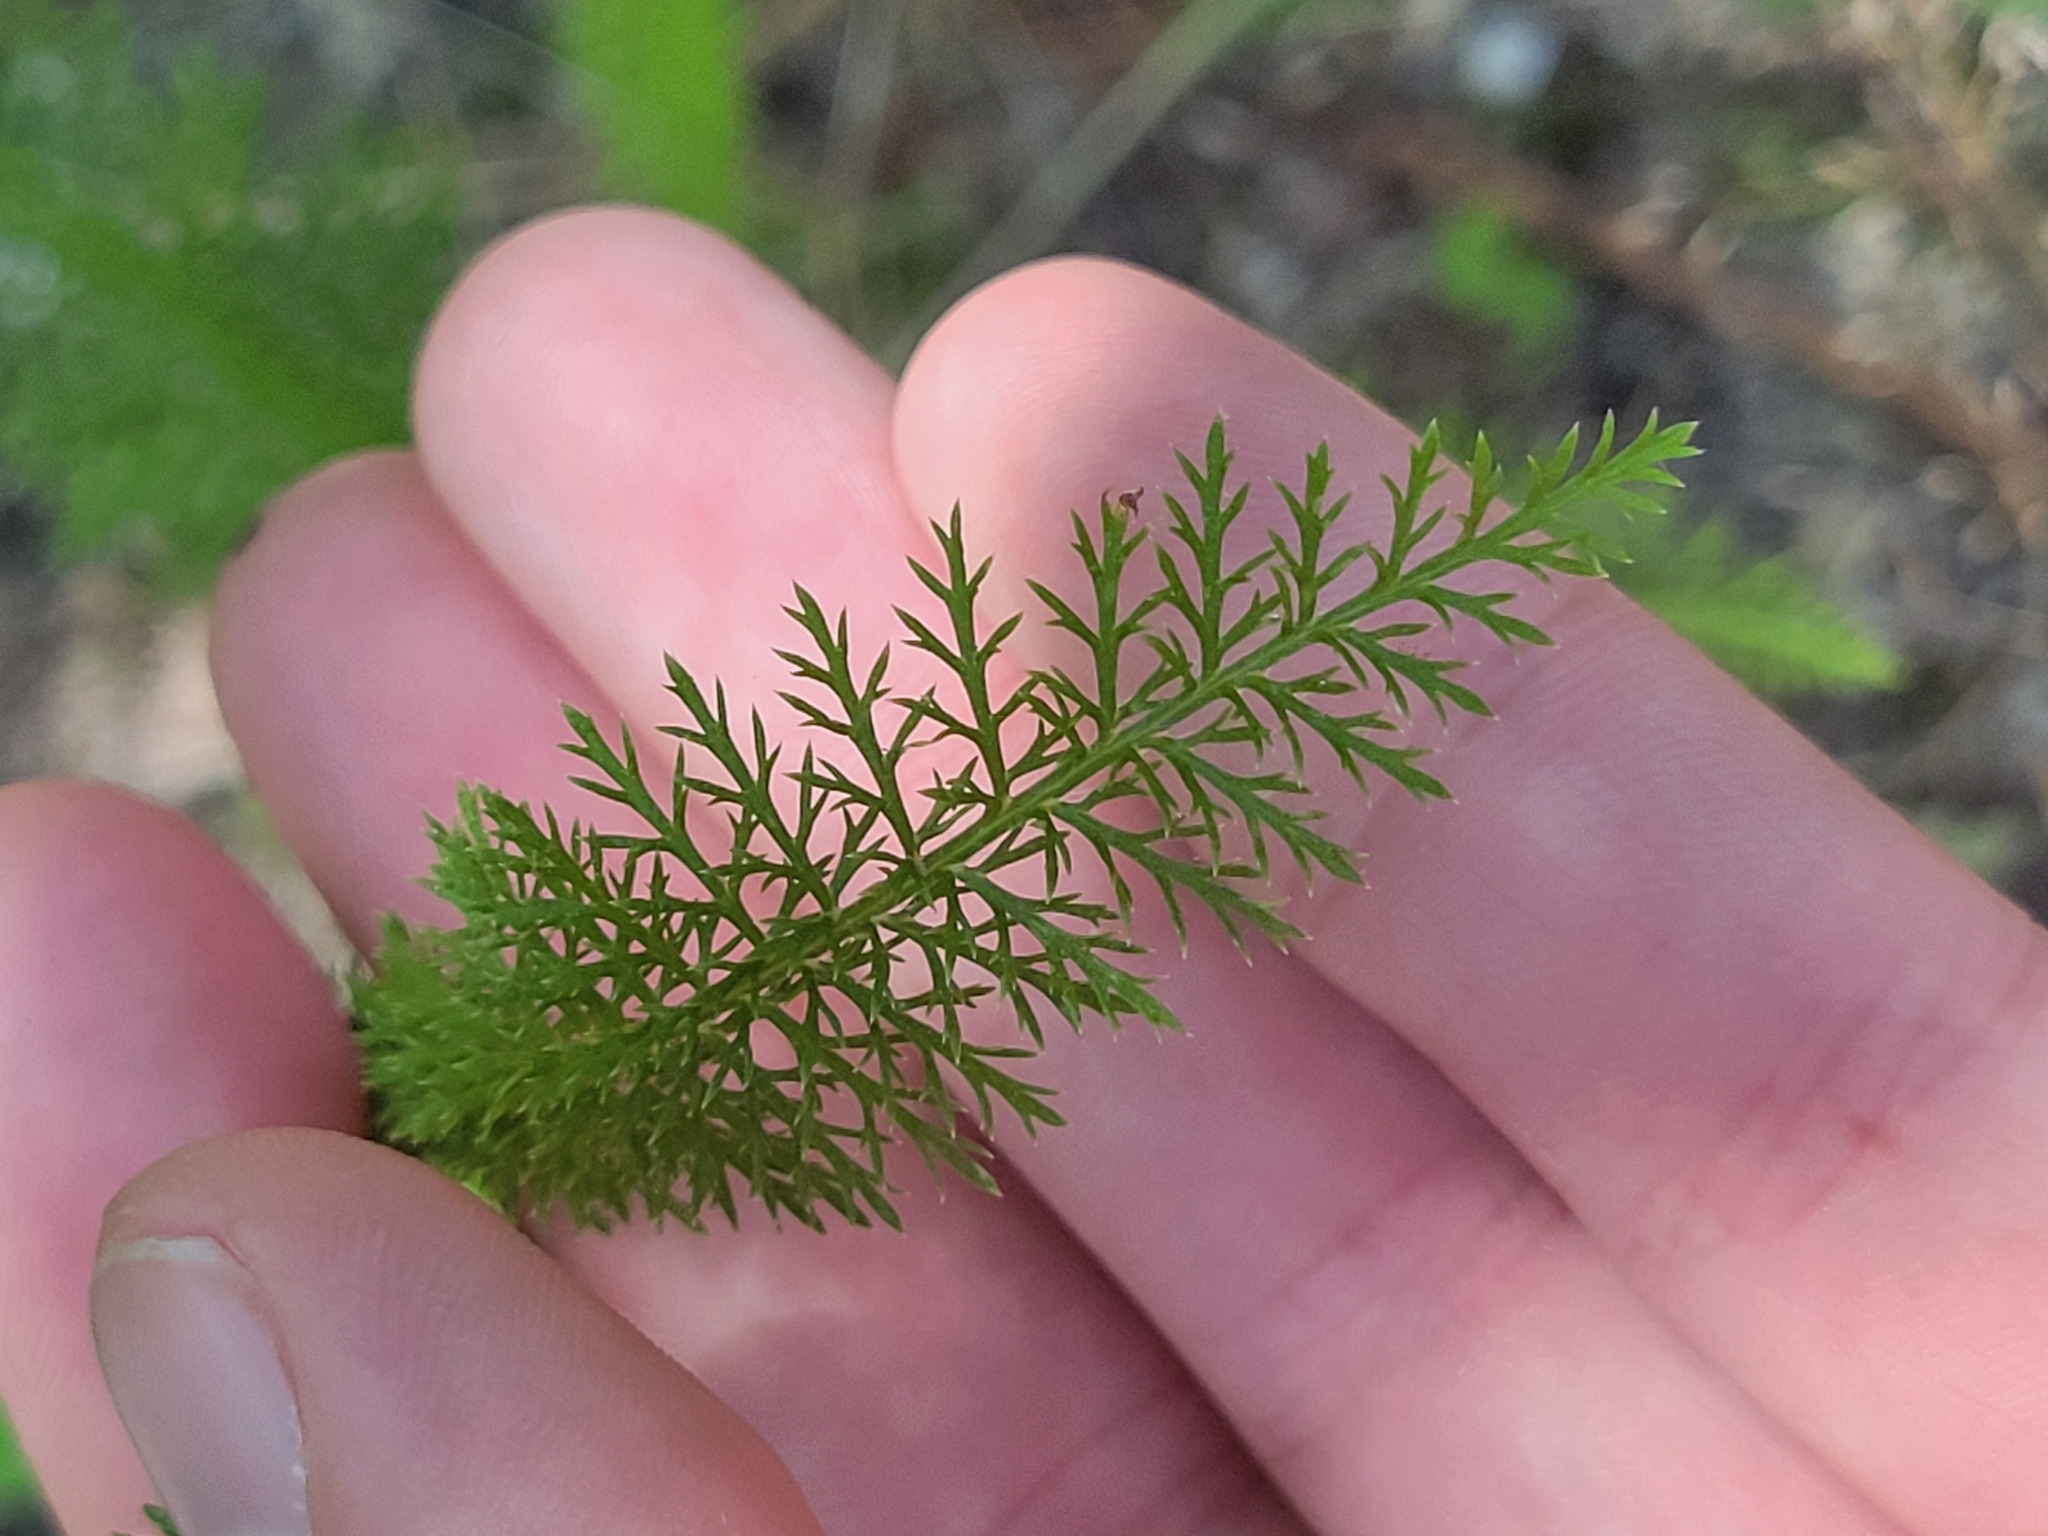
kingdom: Plantae
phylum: Tracheophyta
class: Magnoliopsida
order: Asterales
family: Asteraceae
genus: Achillea
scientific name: Achillea millefolium
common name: Yarrow
